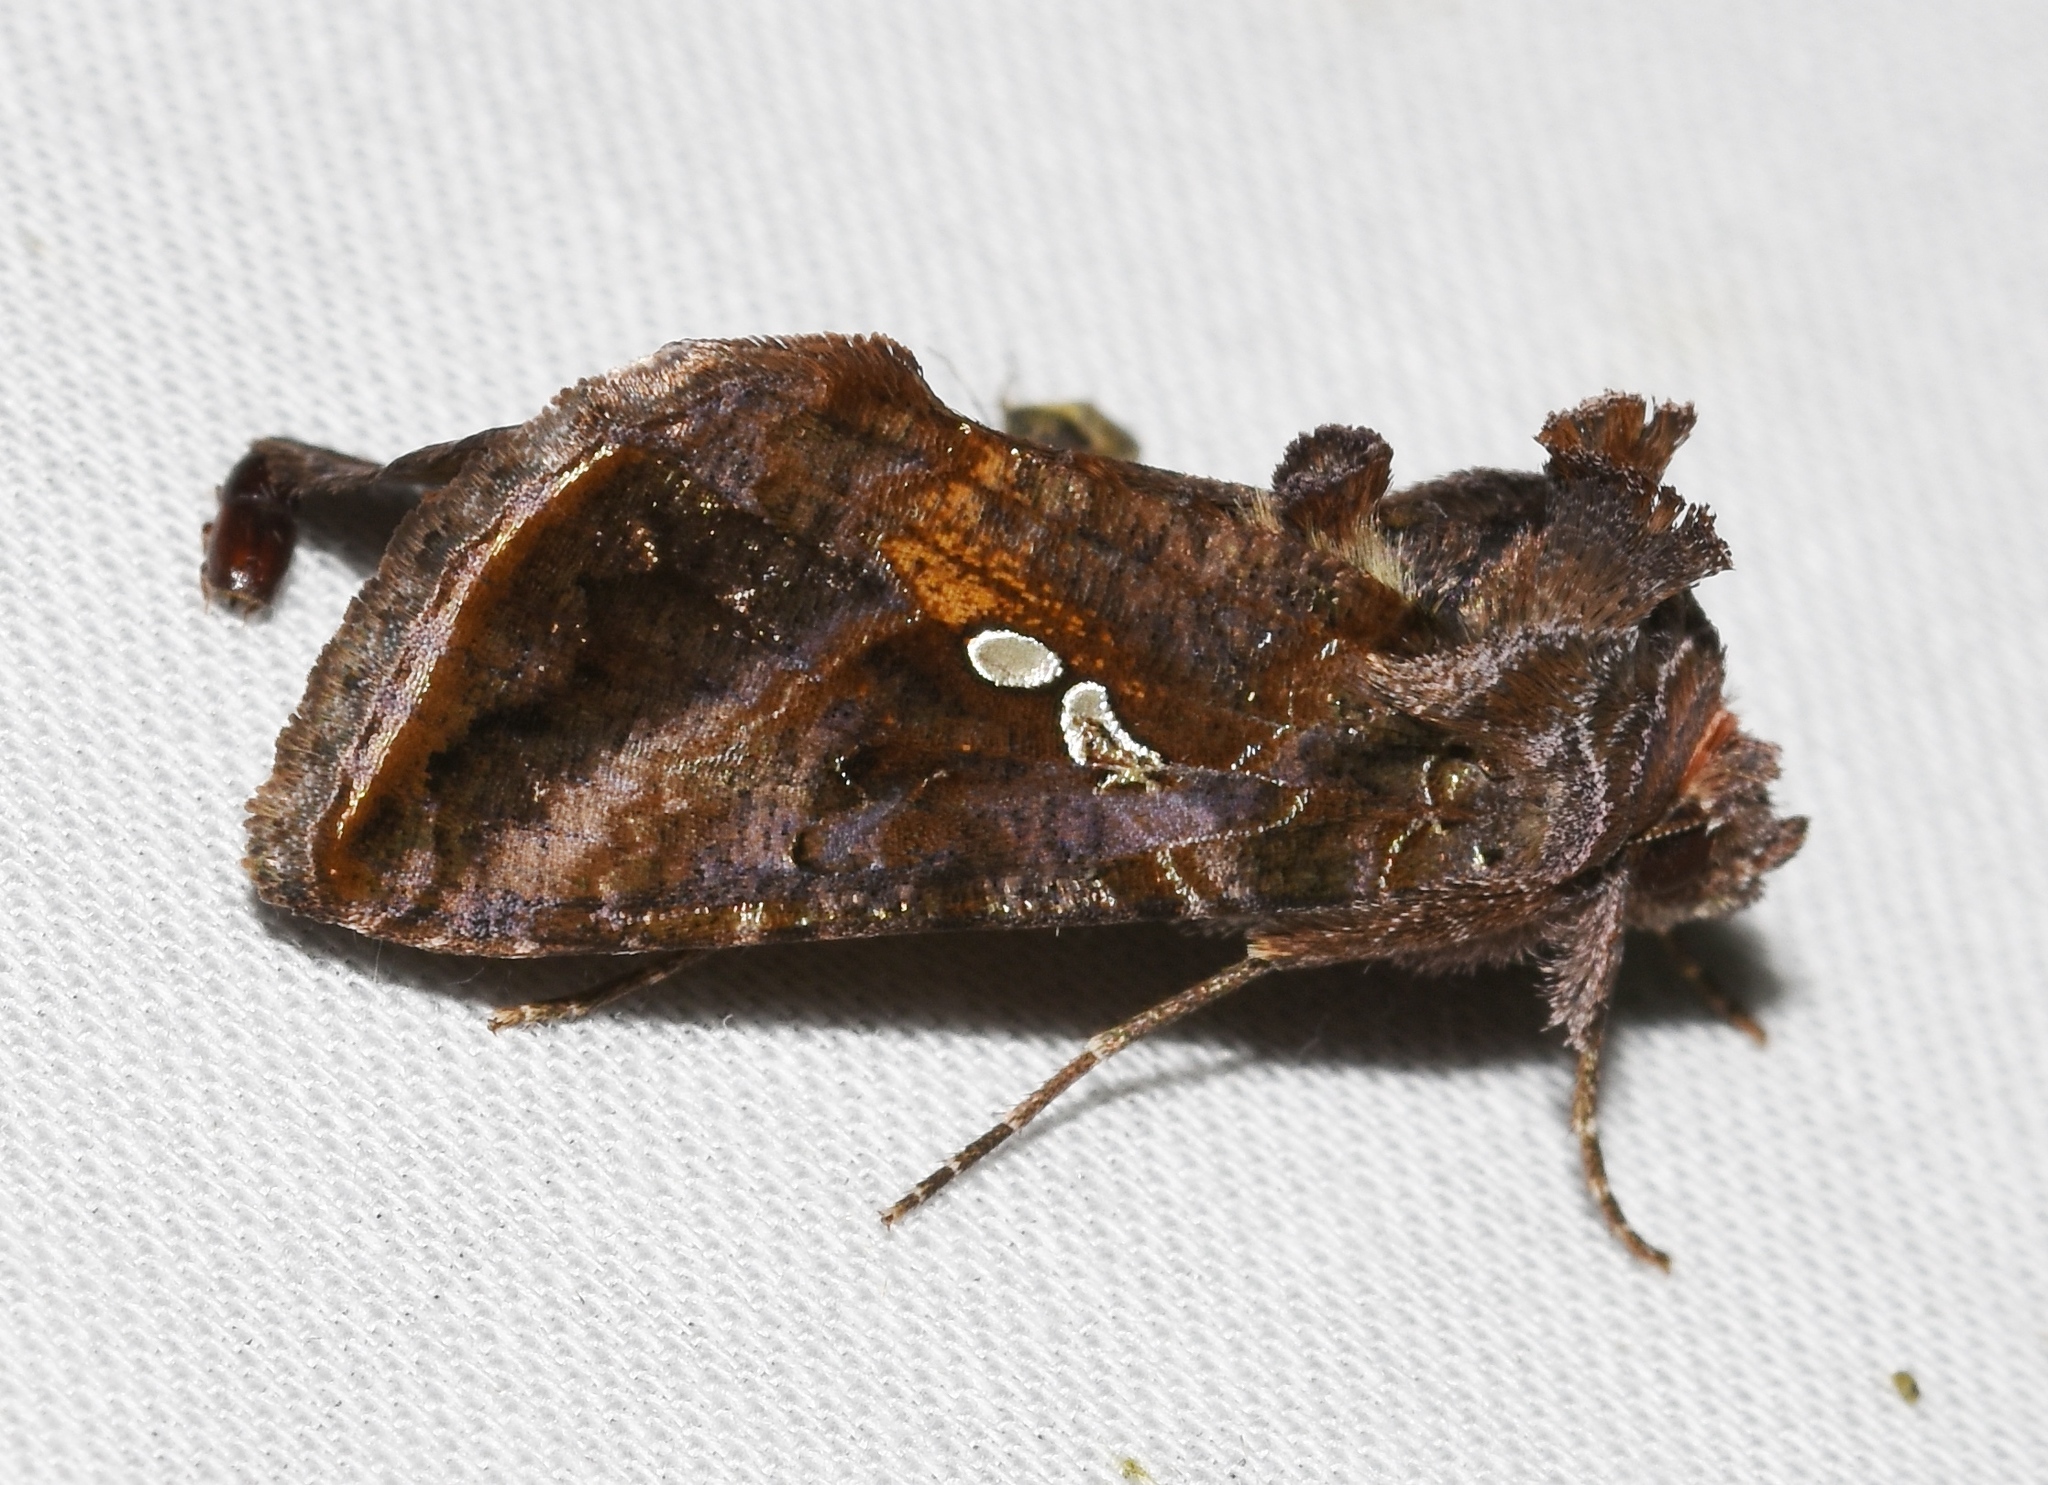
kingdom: Animalia
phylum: Arthropoda
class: Insecta
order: Lepidoptera
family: Noctuidae
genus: Autographa
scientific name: Autographa precationis
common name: Common looper moth
